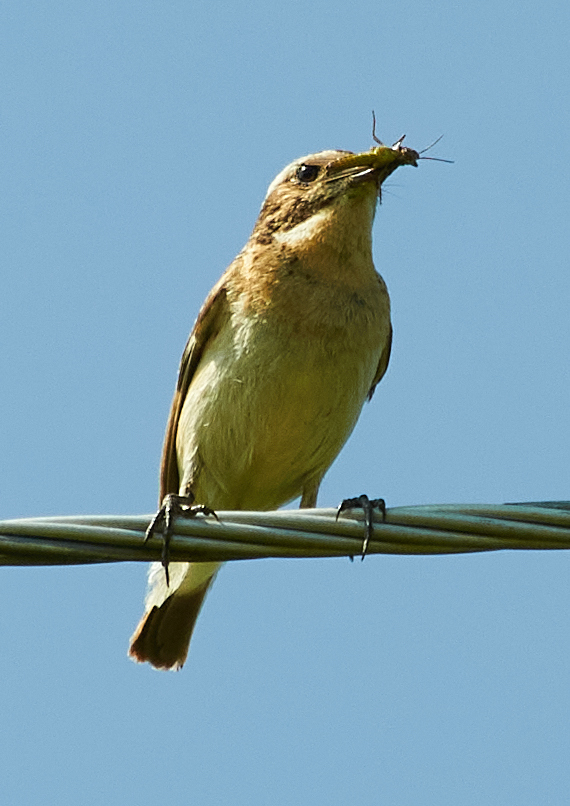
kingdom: Animalia
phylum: Chordata
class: Aves
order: Passeriformes
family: Muscicapidae
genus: Saxicola
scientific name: Saxicola rubetra
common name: Whinchat
